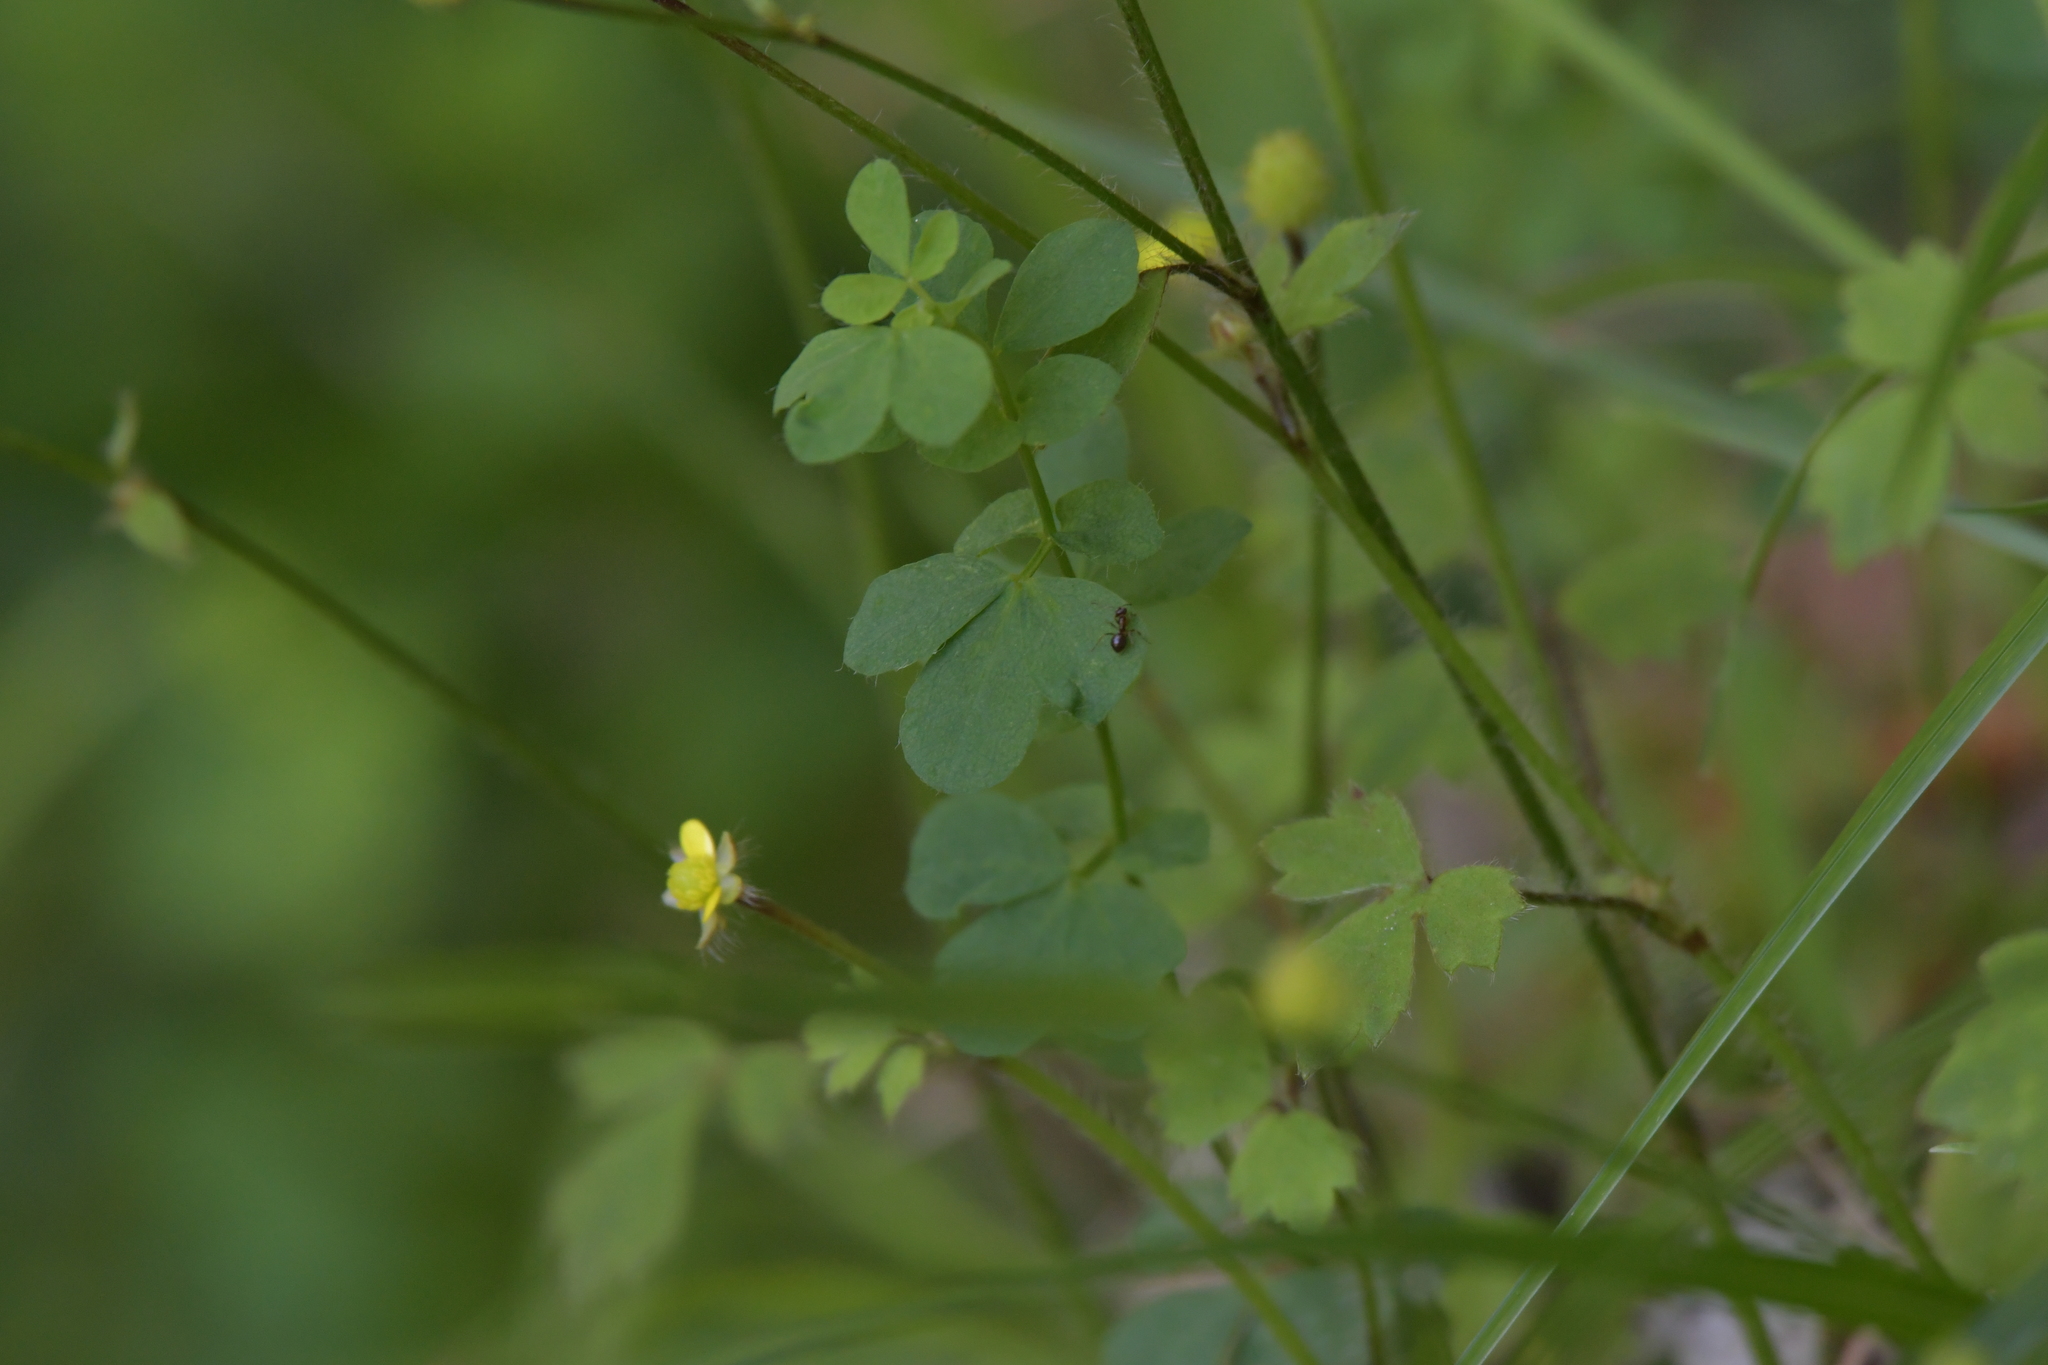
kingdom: Plantae
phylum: Tracheophyta
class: Magnoliopsida
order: Ranunculales
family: Ranunculaceae
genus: Ranunculus
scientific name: Ranunculus reflexus
